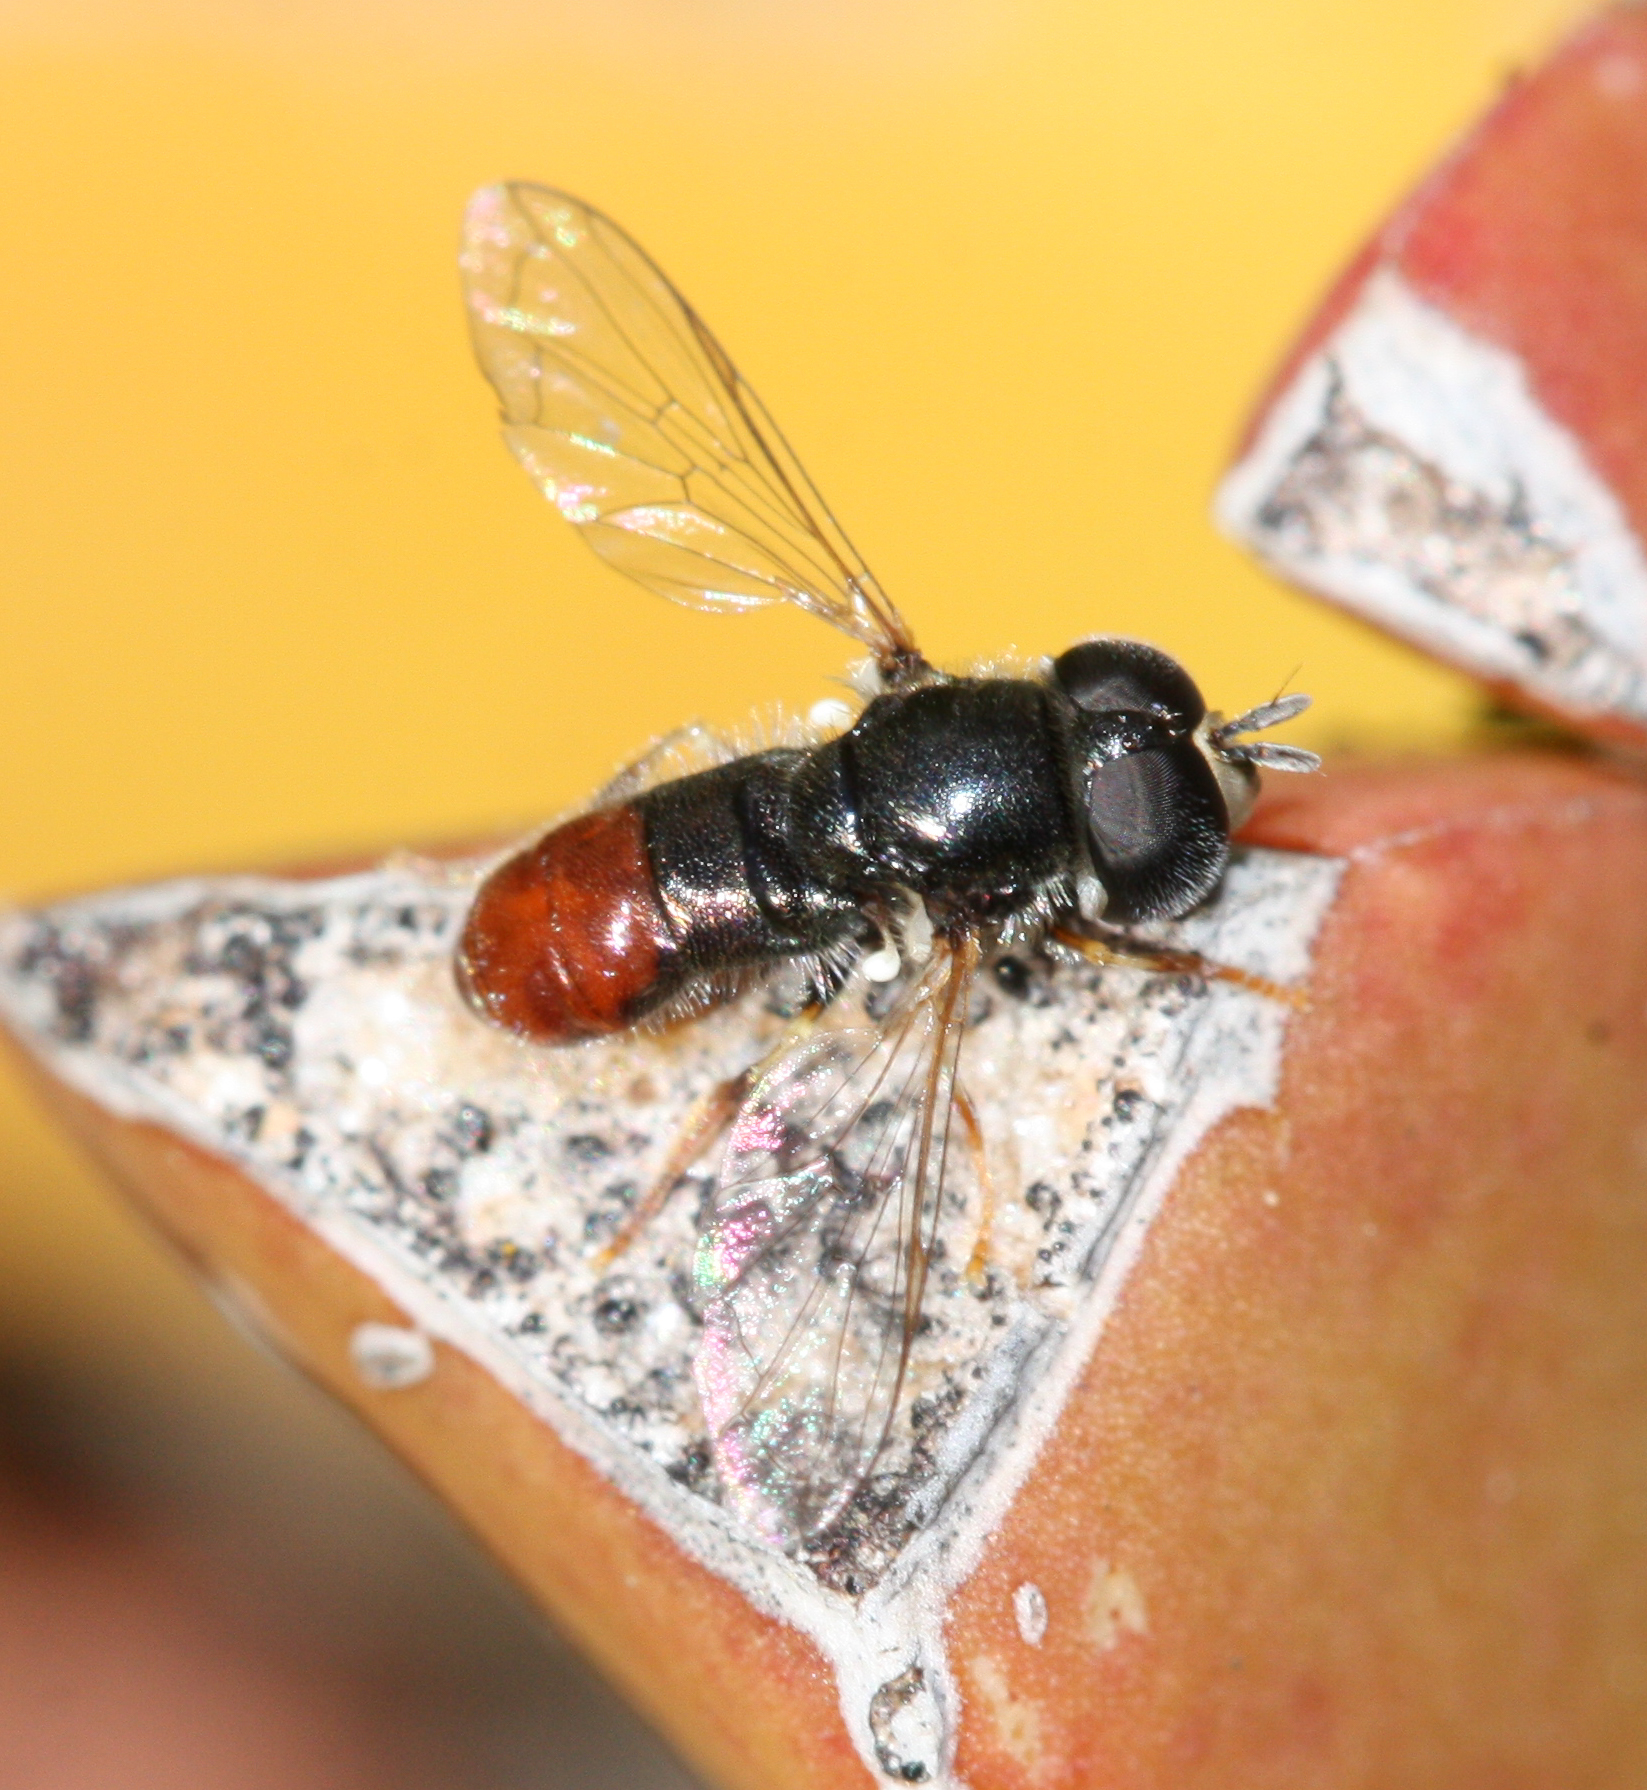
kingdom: Animalia
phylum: Arthropoda
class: Insecta
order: Diptera
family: Syrphidae
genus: Paragus
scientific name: Paragus haemorrhous
